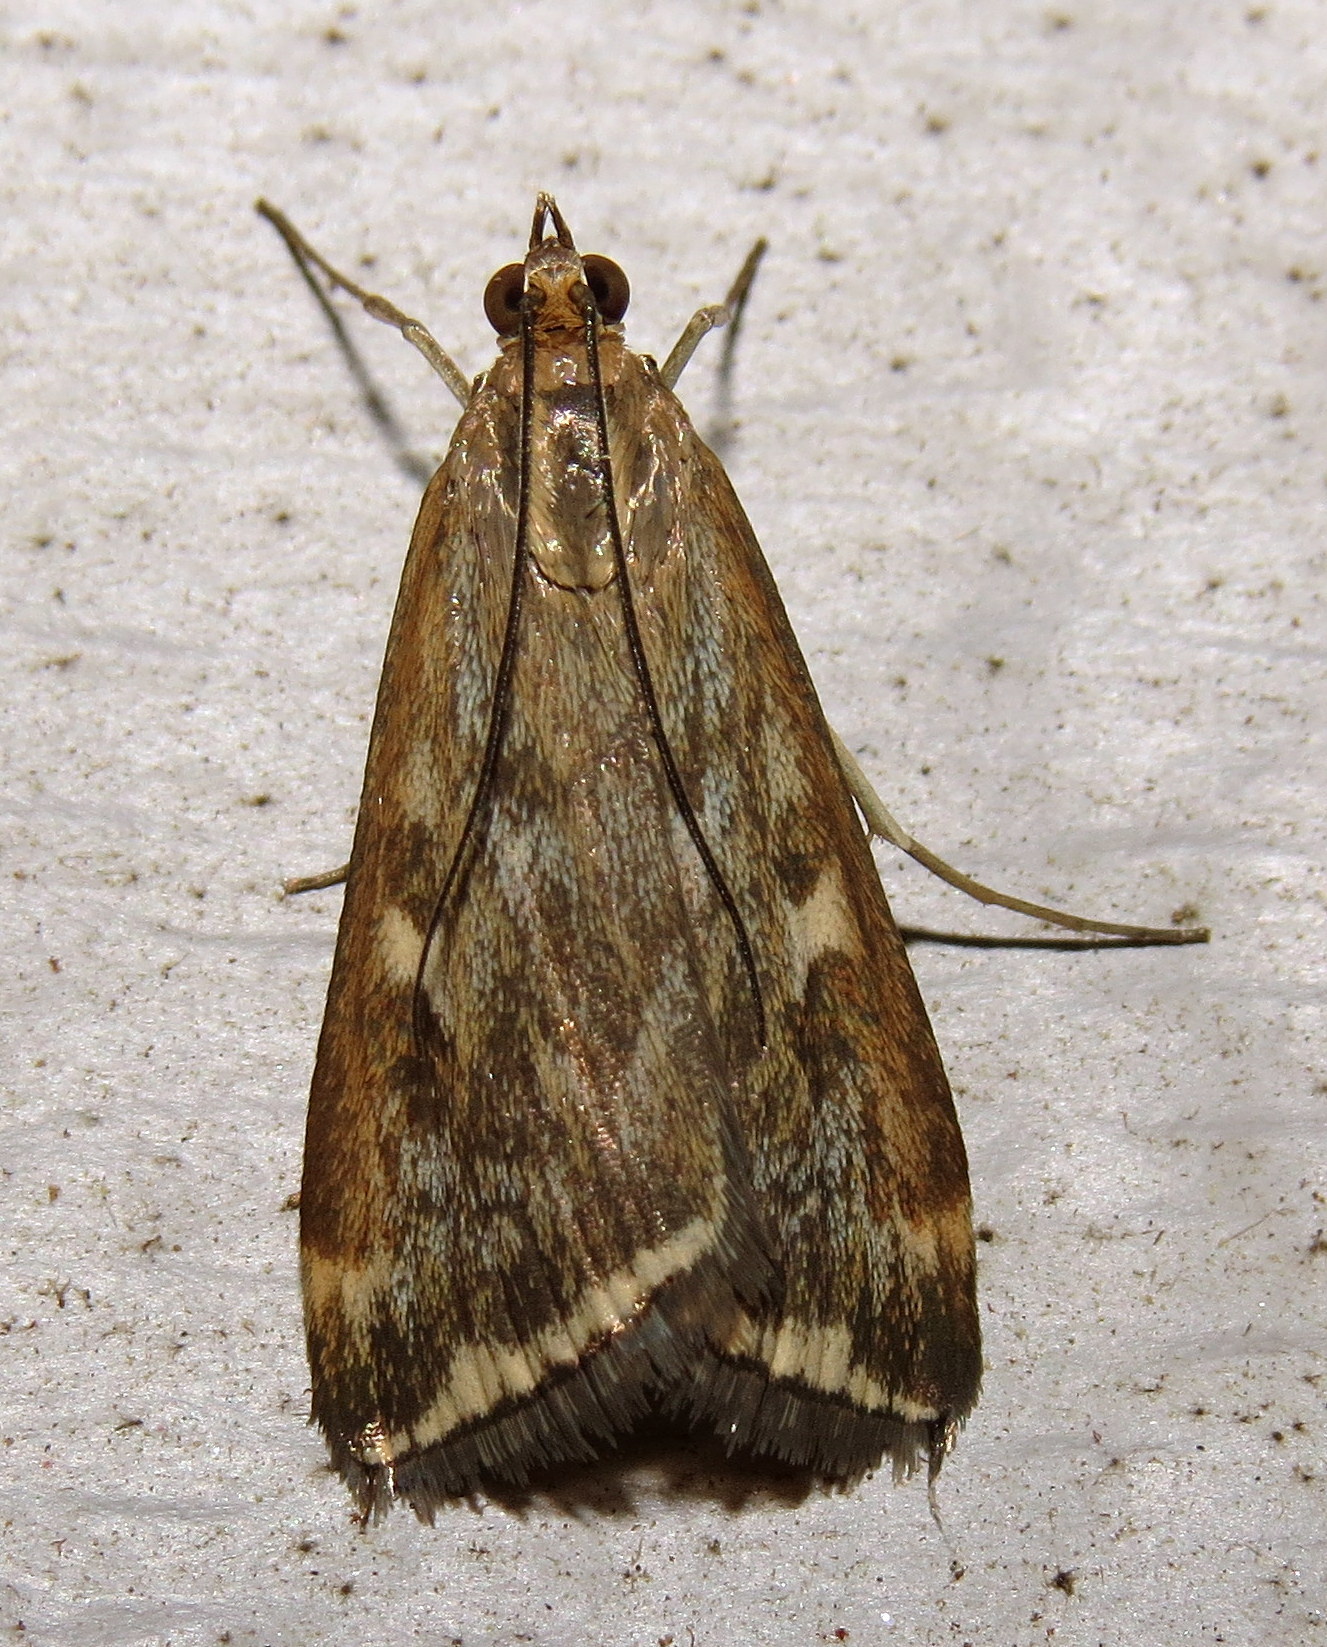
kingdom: Animalia
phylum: Arthropoda
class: Insecta
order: Lepidoptera
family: Crambidae
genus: Loxostege
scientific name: Loxostege
